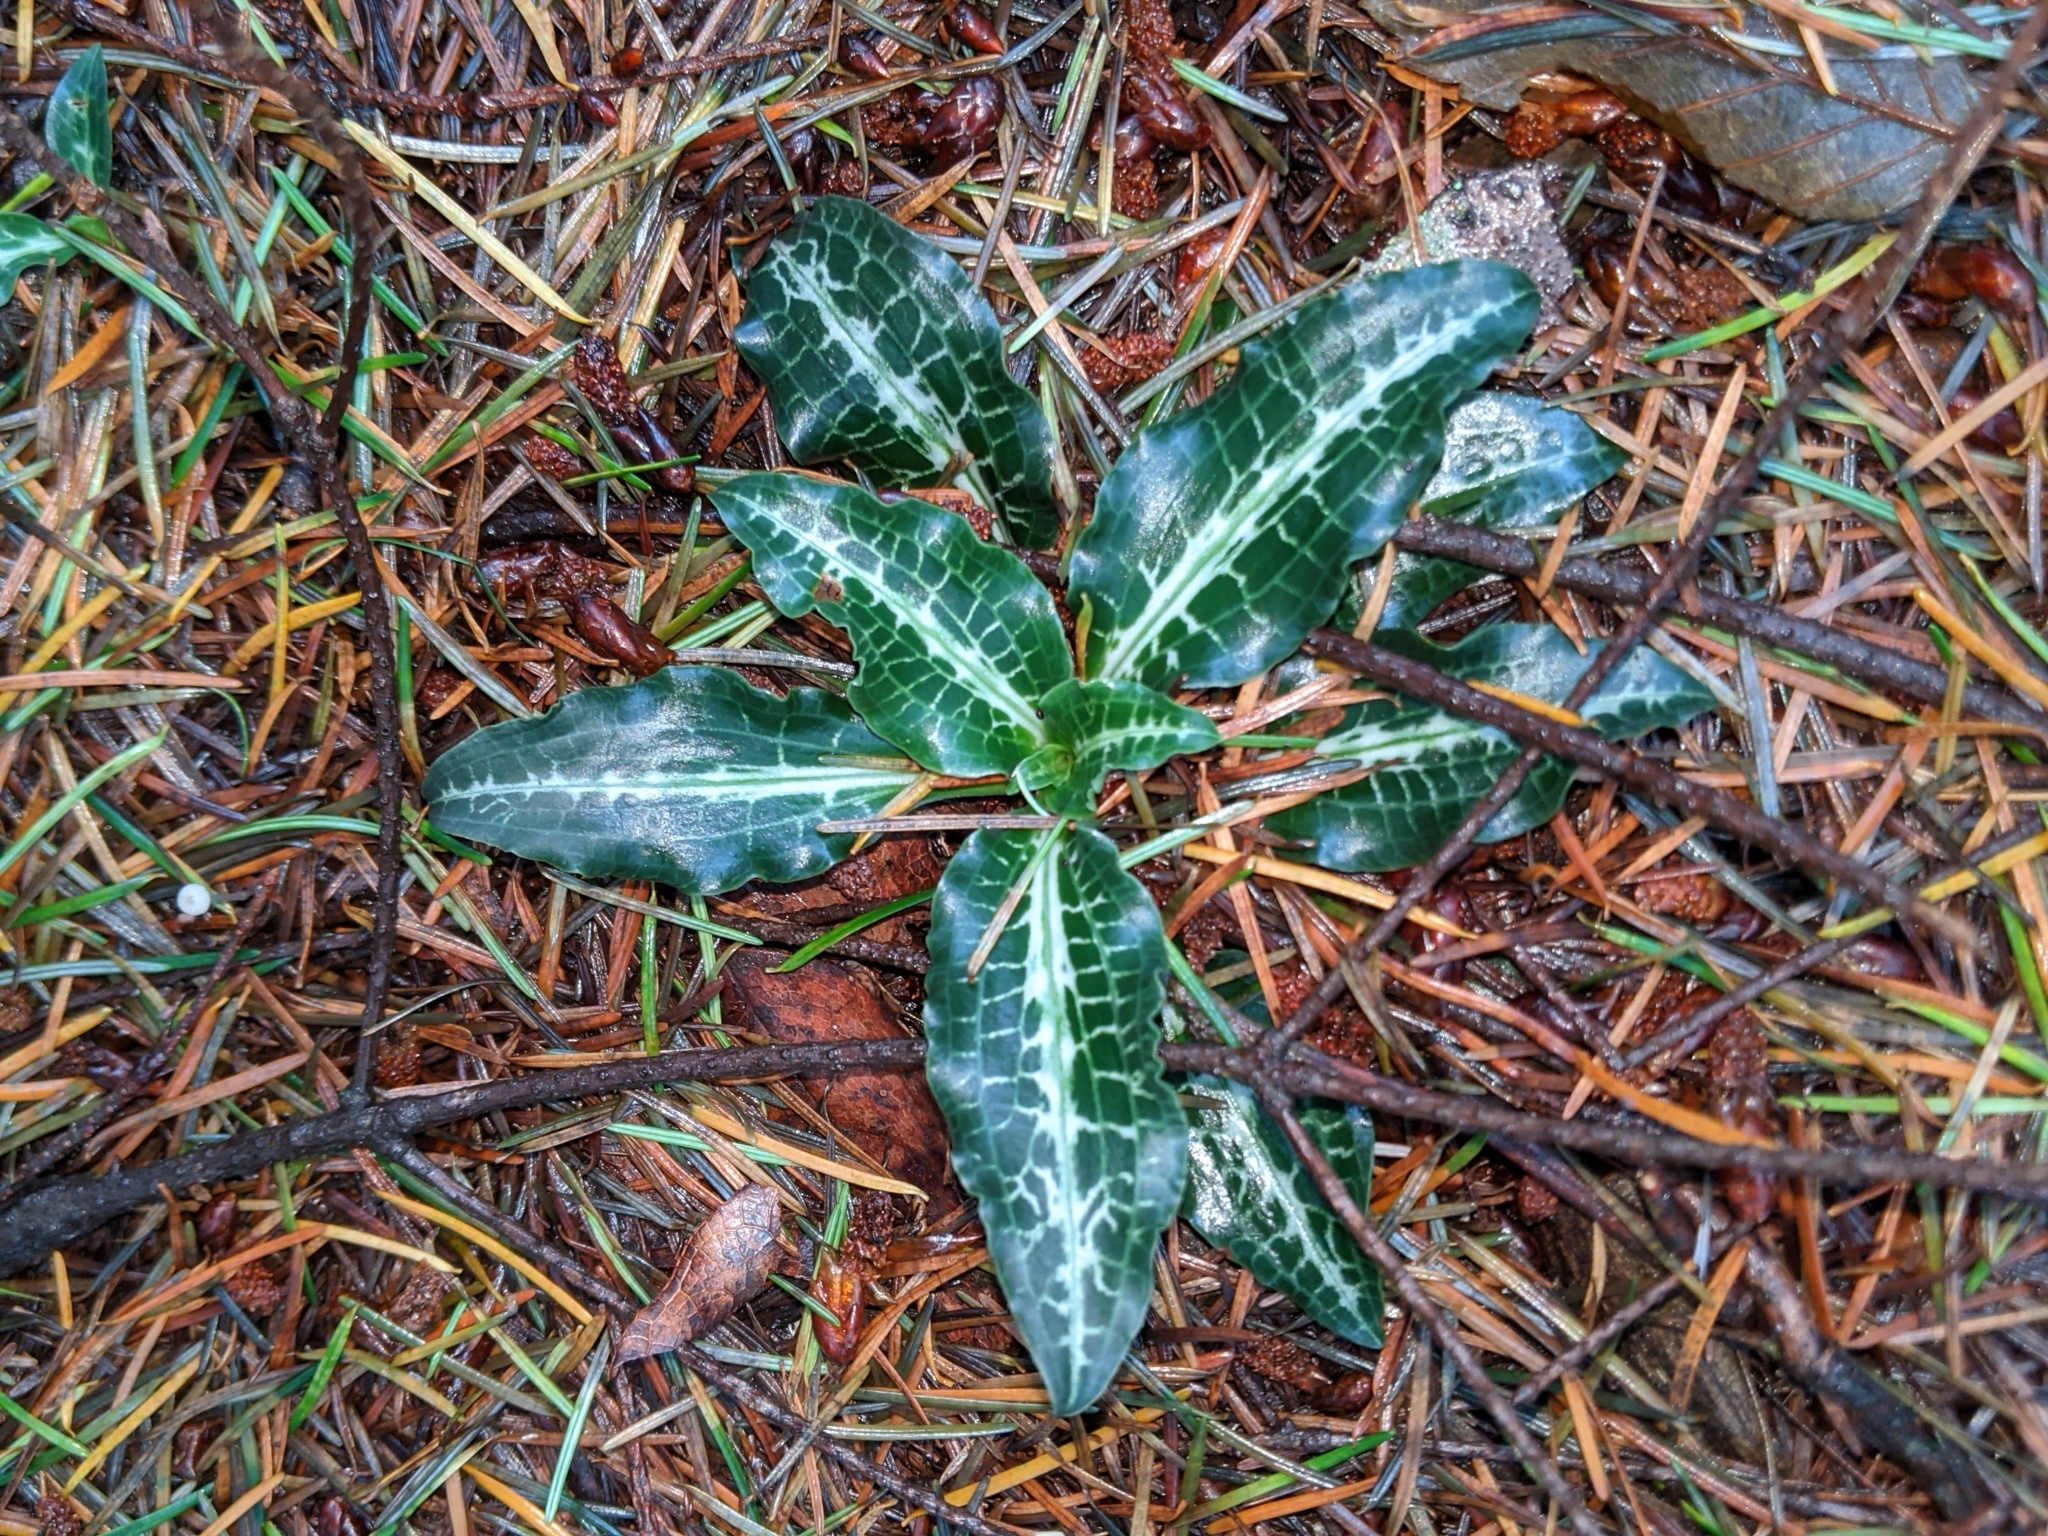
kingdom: Plantae
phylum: Tracheophyta
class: Liliopsida
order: Asparagales
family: Orchidaceae
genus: Goodyera
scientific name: Goodyera oblongifolia
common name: Giant rattlesnake-plantain
